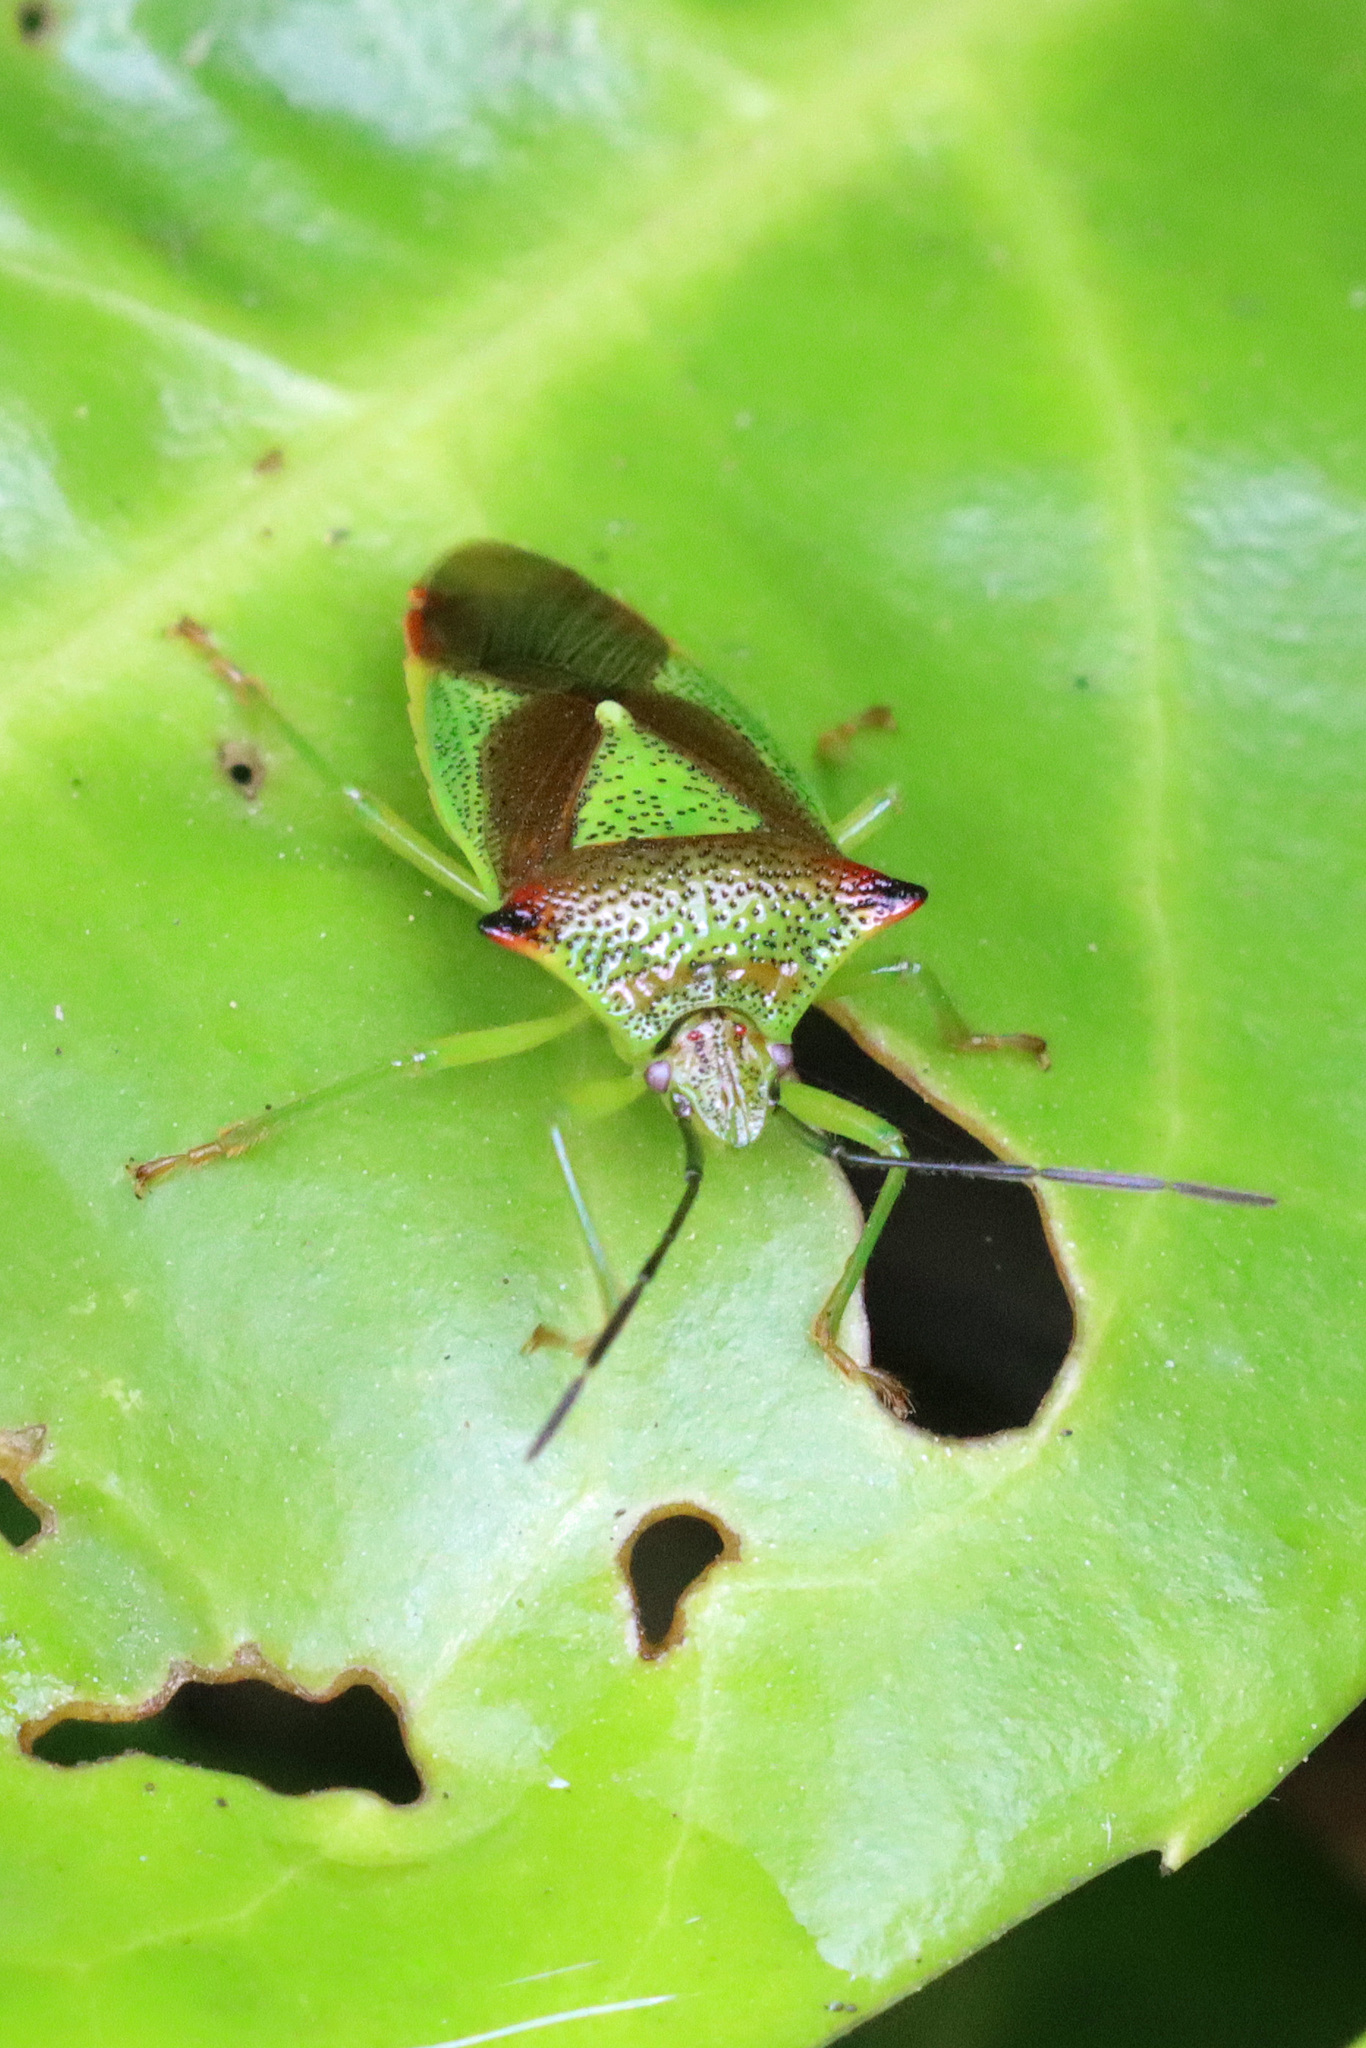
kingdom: Animalia
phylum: Arthropoda
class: Insecta
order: Hemiptera
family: Acanthosomatidae
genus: Acanthosoma
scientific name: Acanthosoma haemorrhoidale
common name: Hawthorn shieldbug
